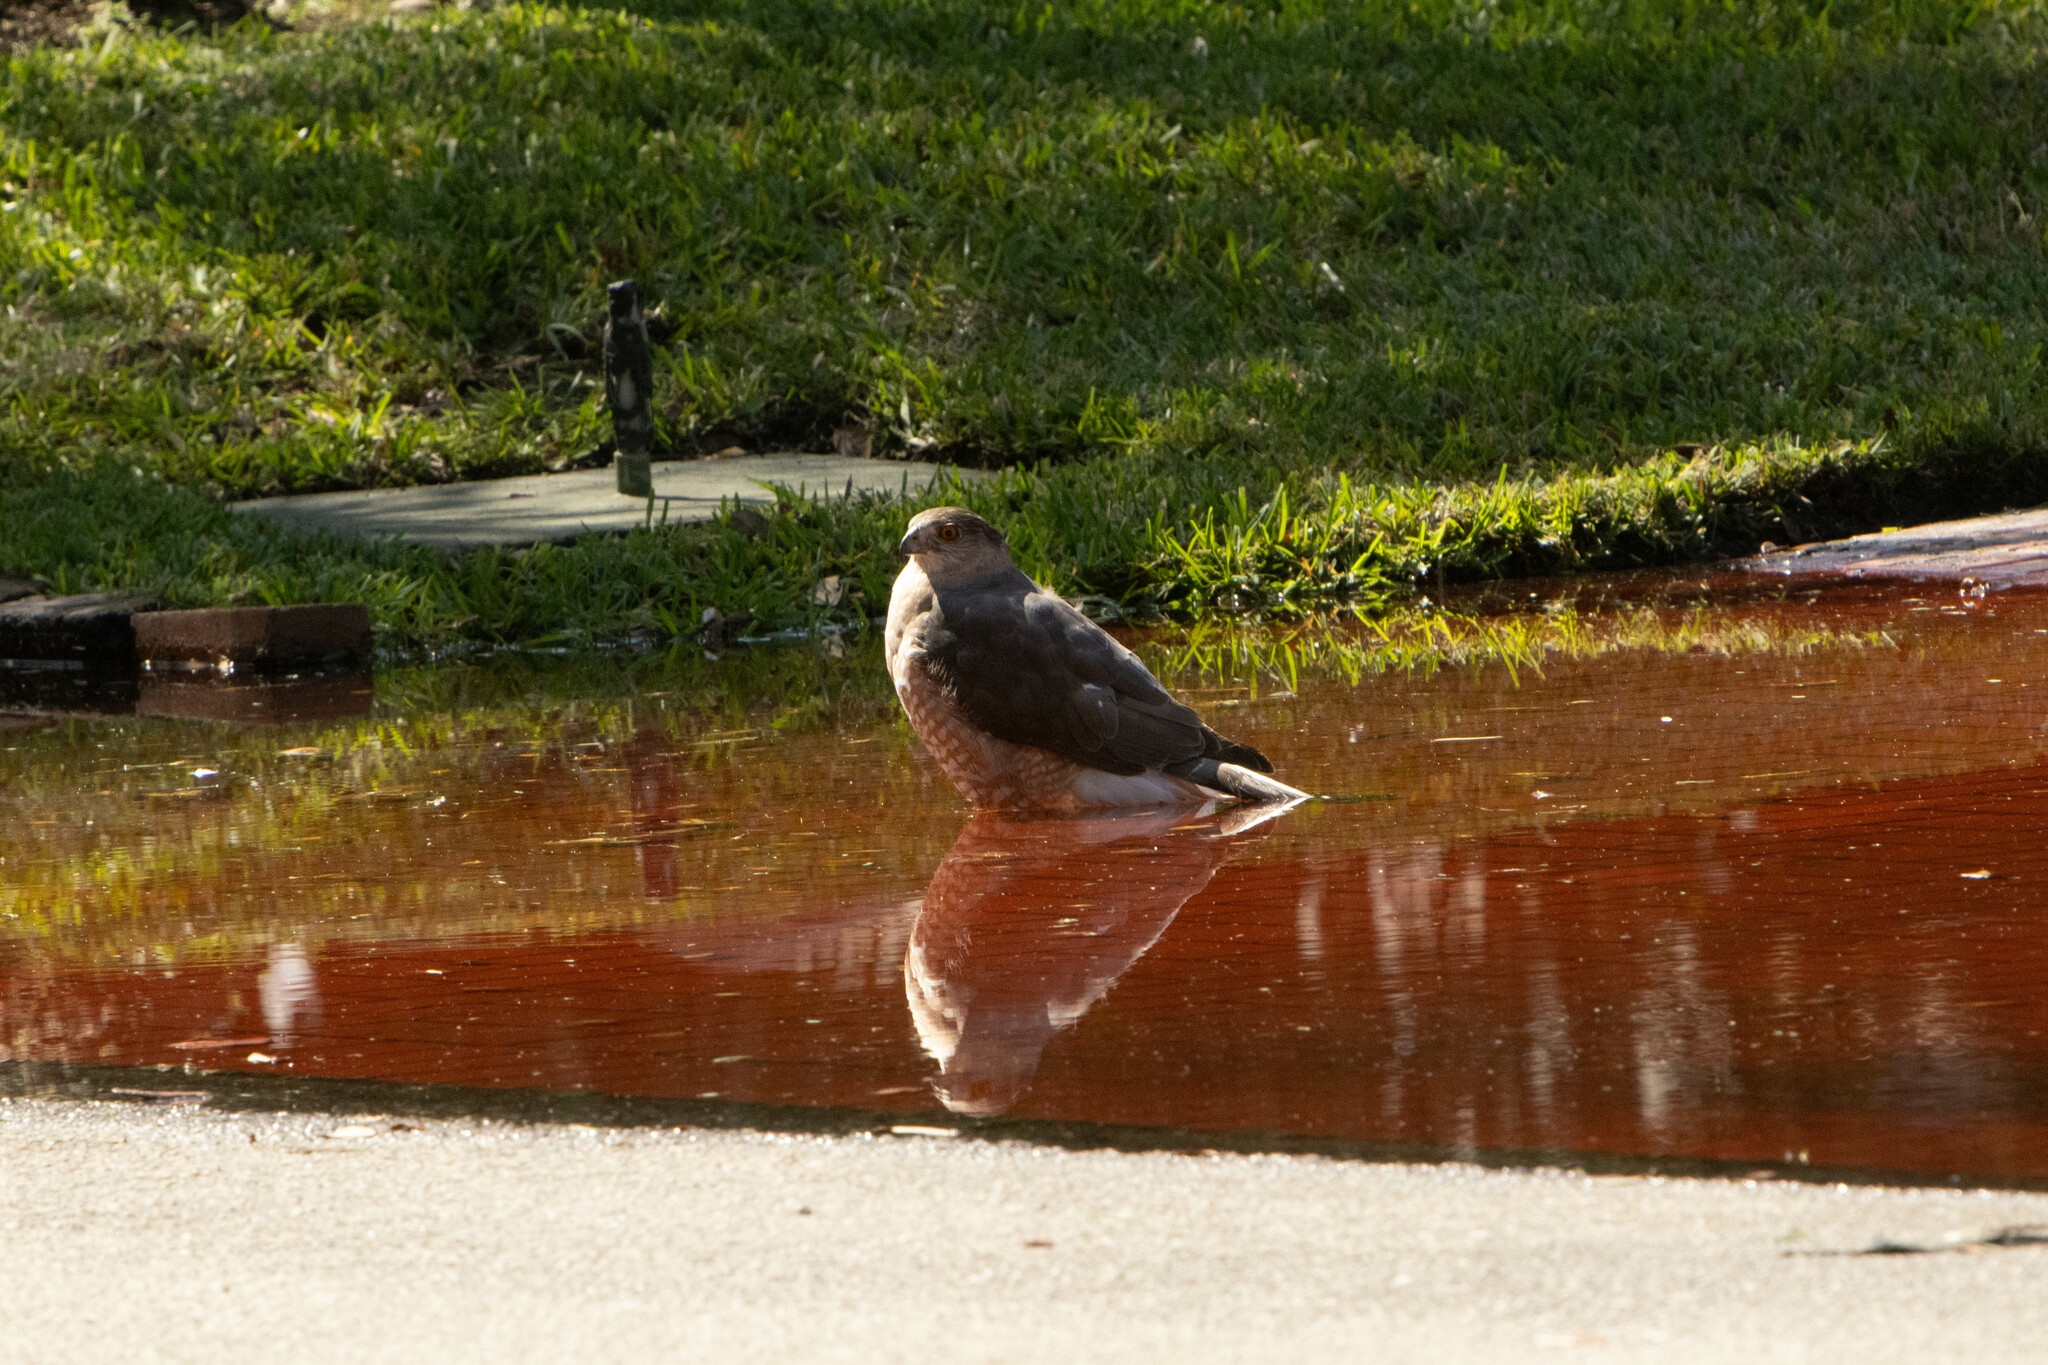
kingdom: Animalia
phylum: Chordata
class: Aves
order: Accipitriformes
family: Accipitridae
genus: Accipiter
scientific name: Accipiter cooperii
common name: Cooper's hawk
